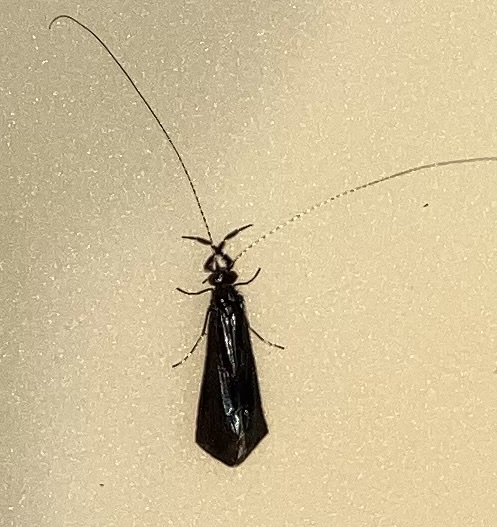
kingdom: Animalia
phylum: Arthropoda
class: Insecta
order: Trichoptera
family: Leptoceridae
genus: Mystacides
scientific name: Mystacides sepulchralis
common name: Black dancer caddisfly
